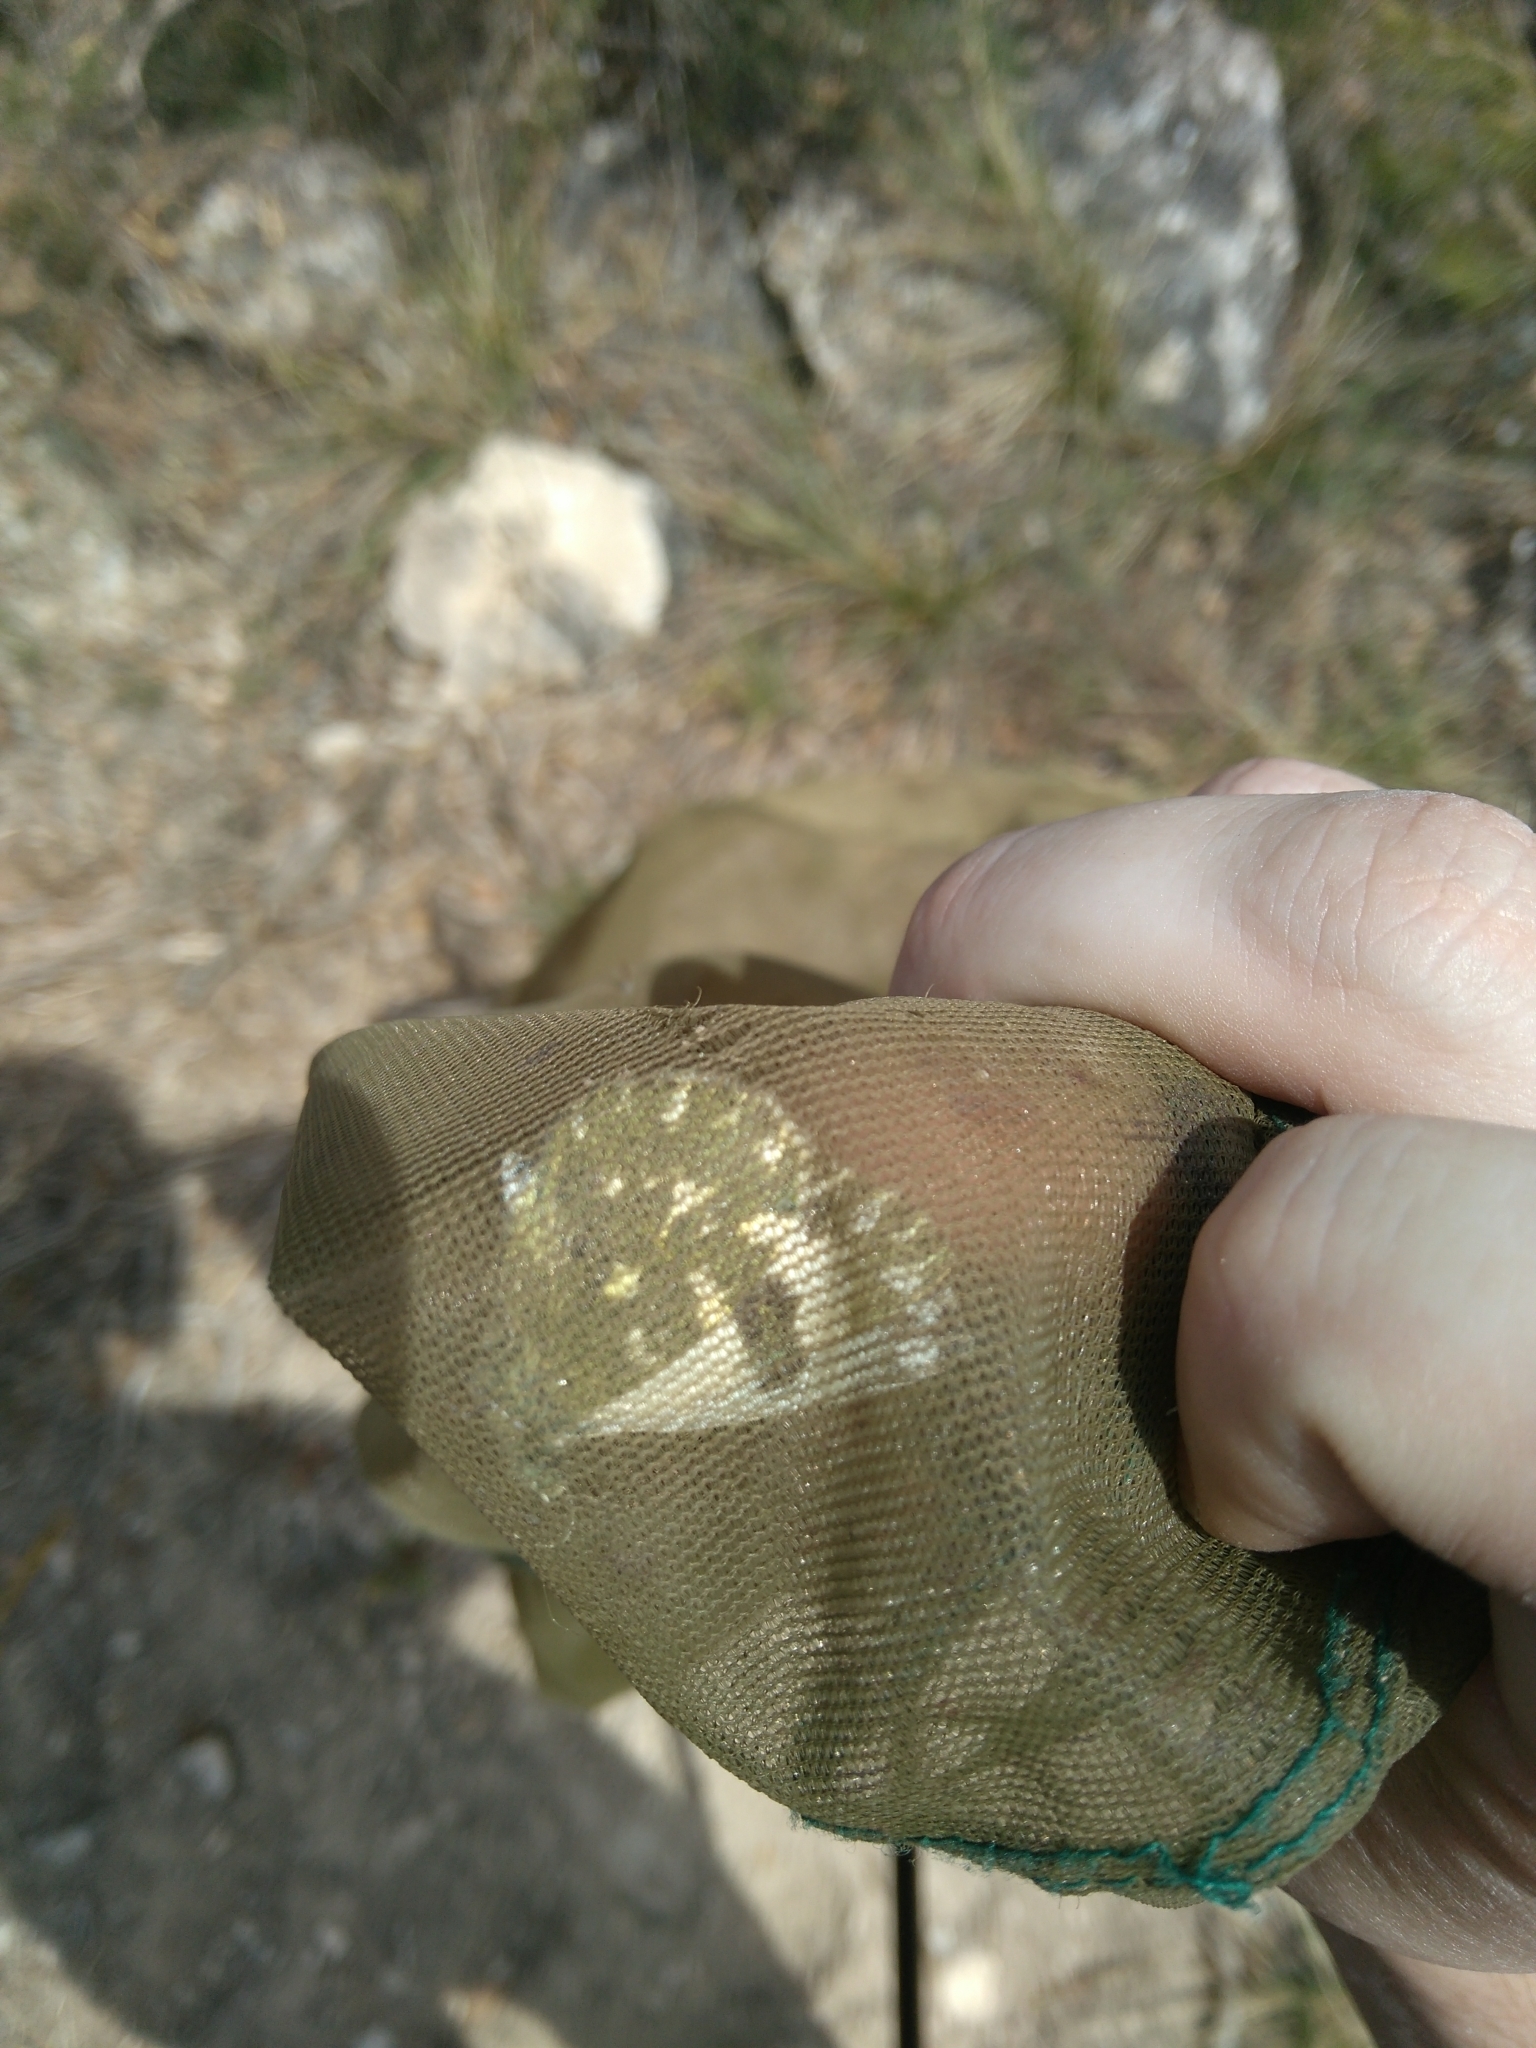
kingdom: Animalia
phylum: Arthropoda
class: Insecta
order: Lepidoptera
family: Pieridae
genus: Pontia
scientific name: Pontia daplidice
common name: Bath white
